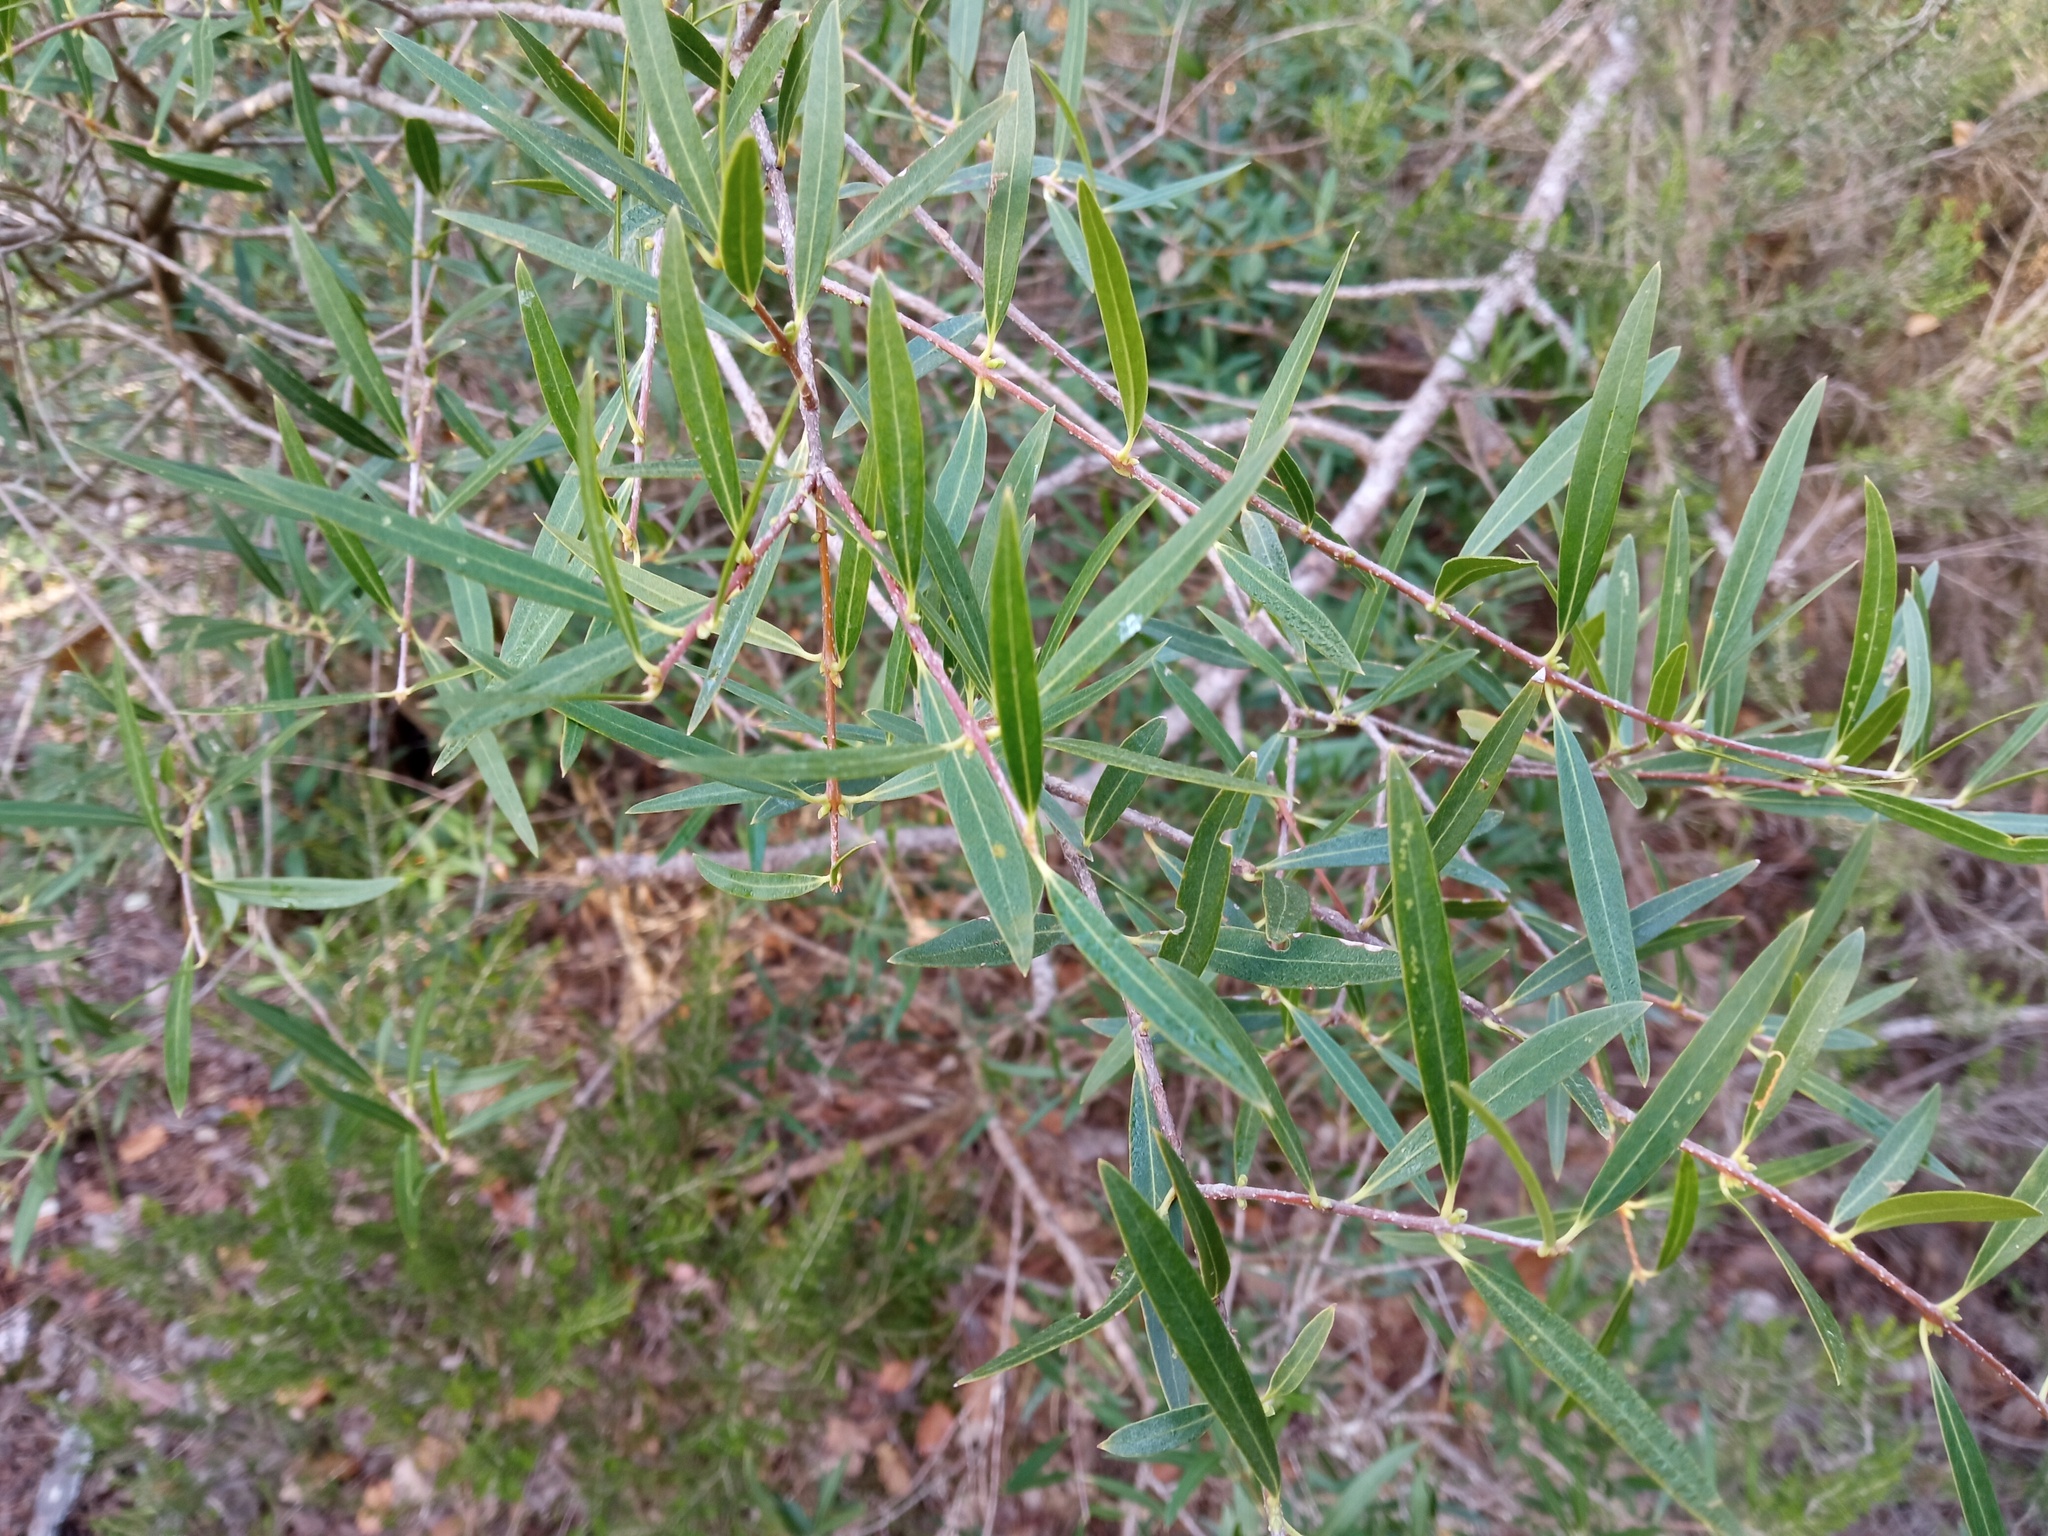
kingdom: Plantae
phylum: Tracheophyta
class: Magnoliopsida
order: Lamiales
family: Oleaceae
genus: Phillyrea
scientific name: Phillyrea angustifolia
